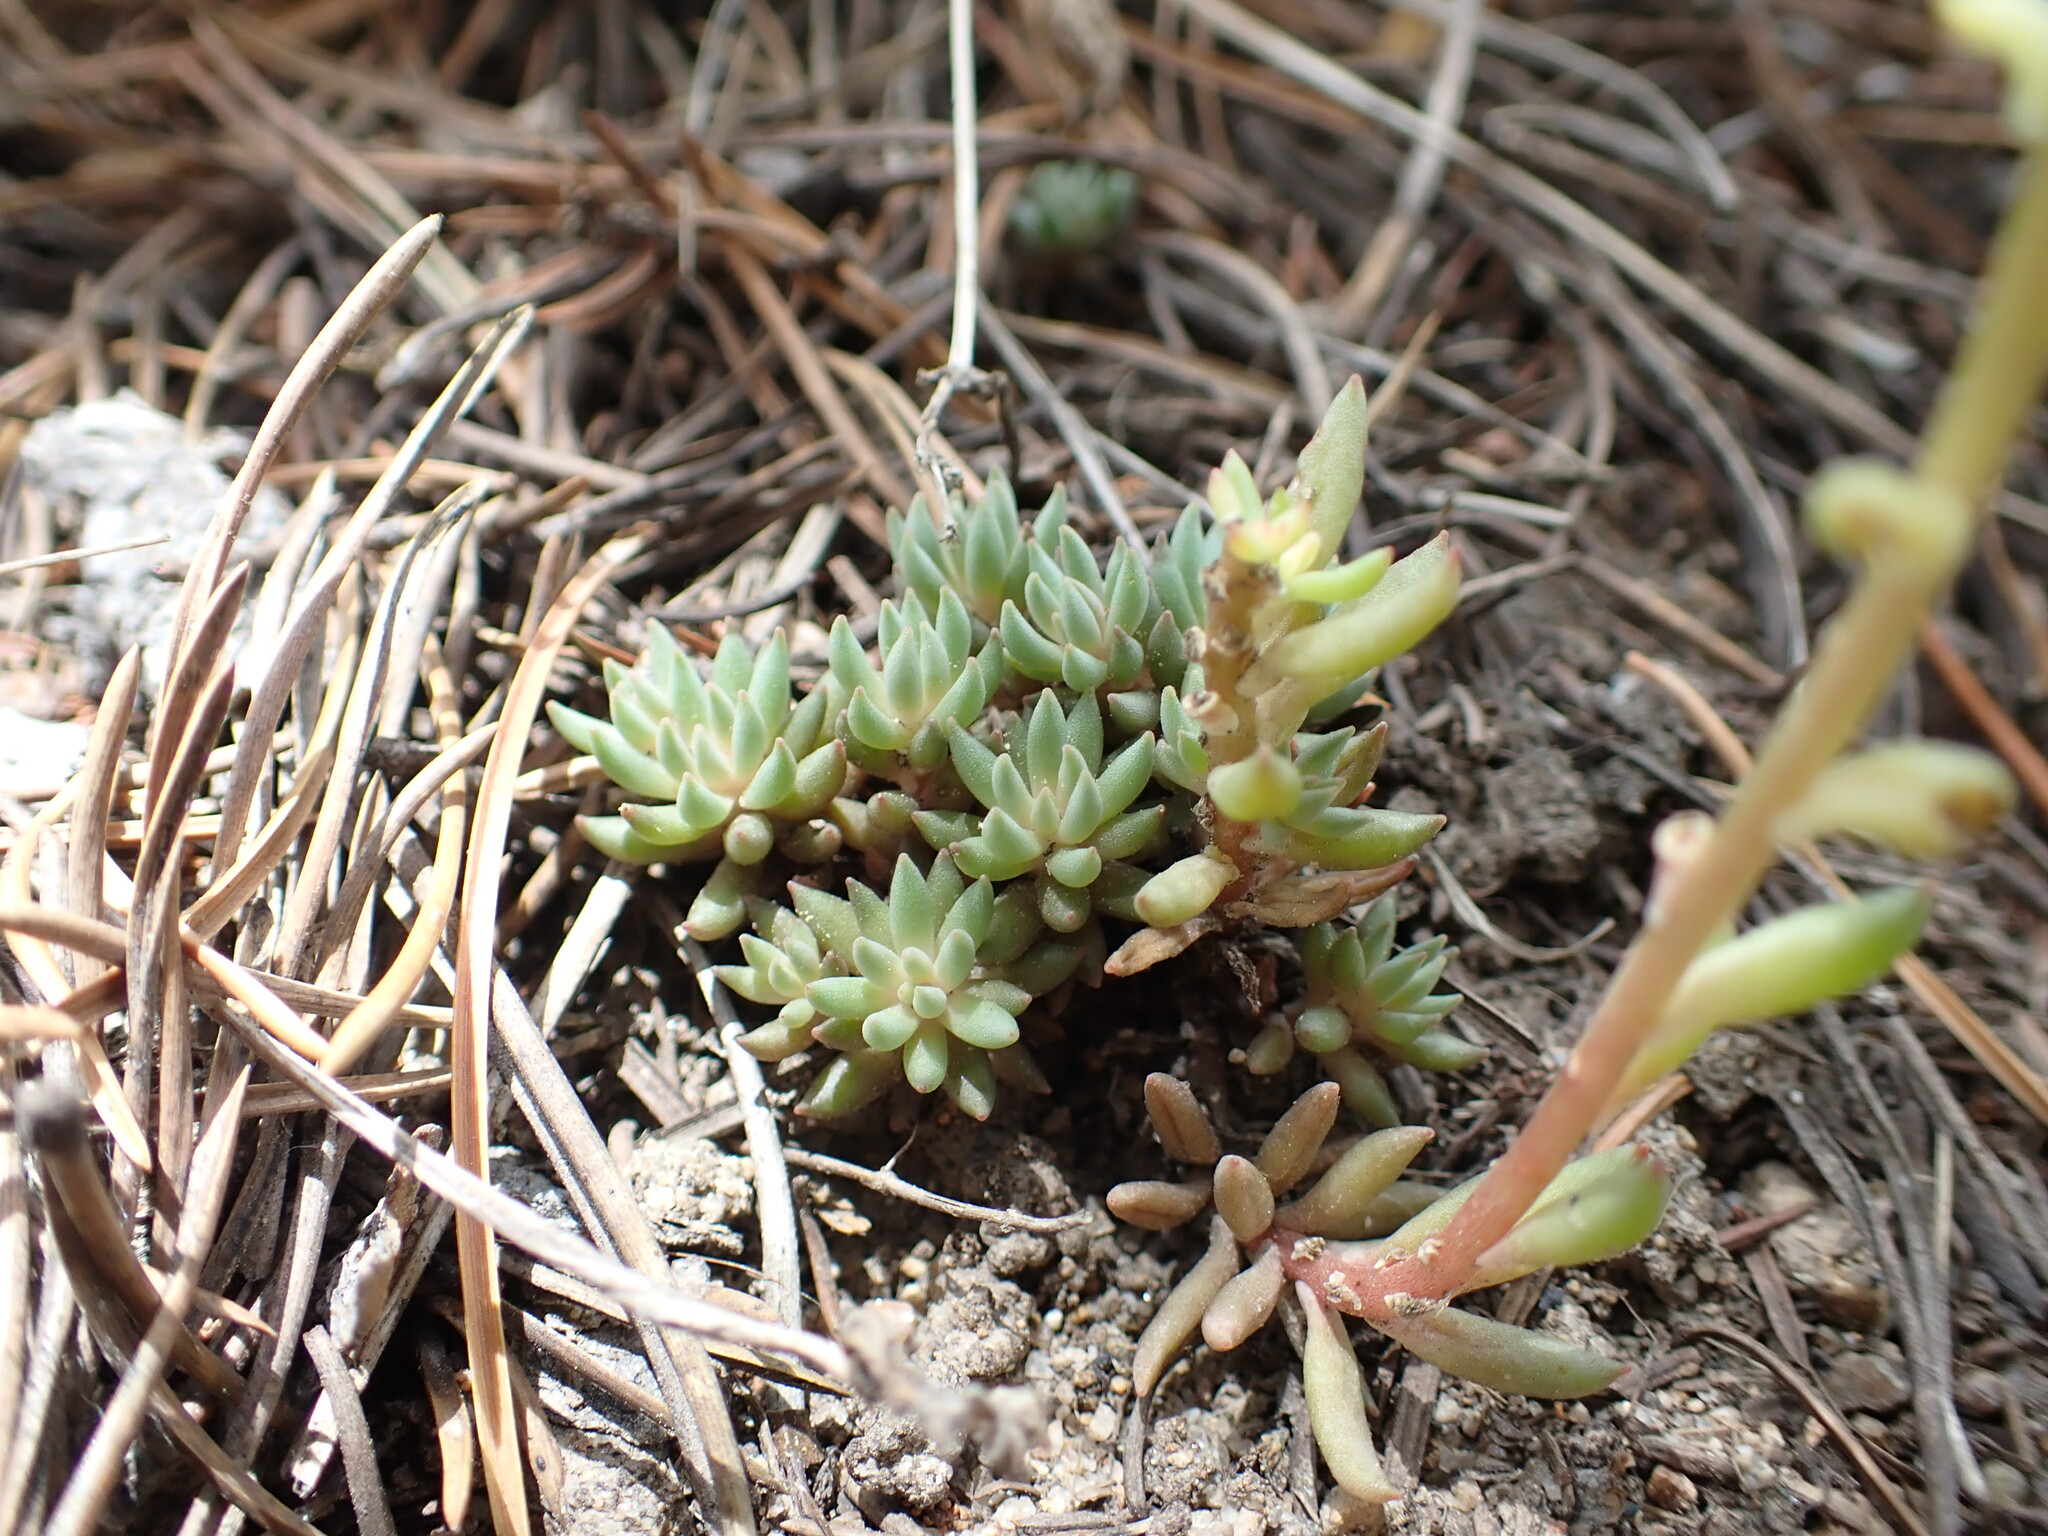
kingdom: Plantae
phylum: Tracheophyta
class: Magnoliopsida
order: Saxifragales
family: Crassulaceae
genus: Sedum
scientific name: Sedum lanceolatum
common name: Common stonecrop
